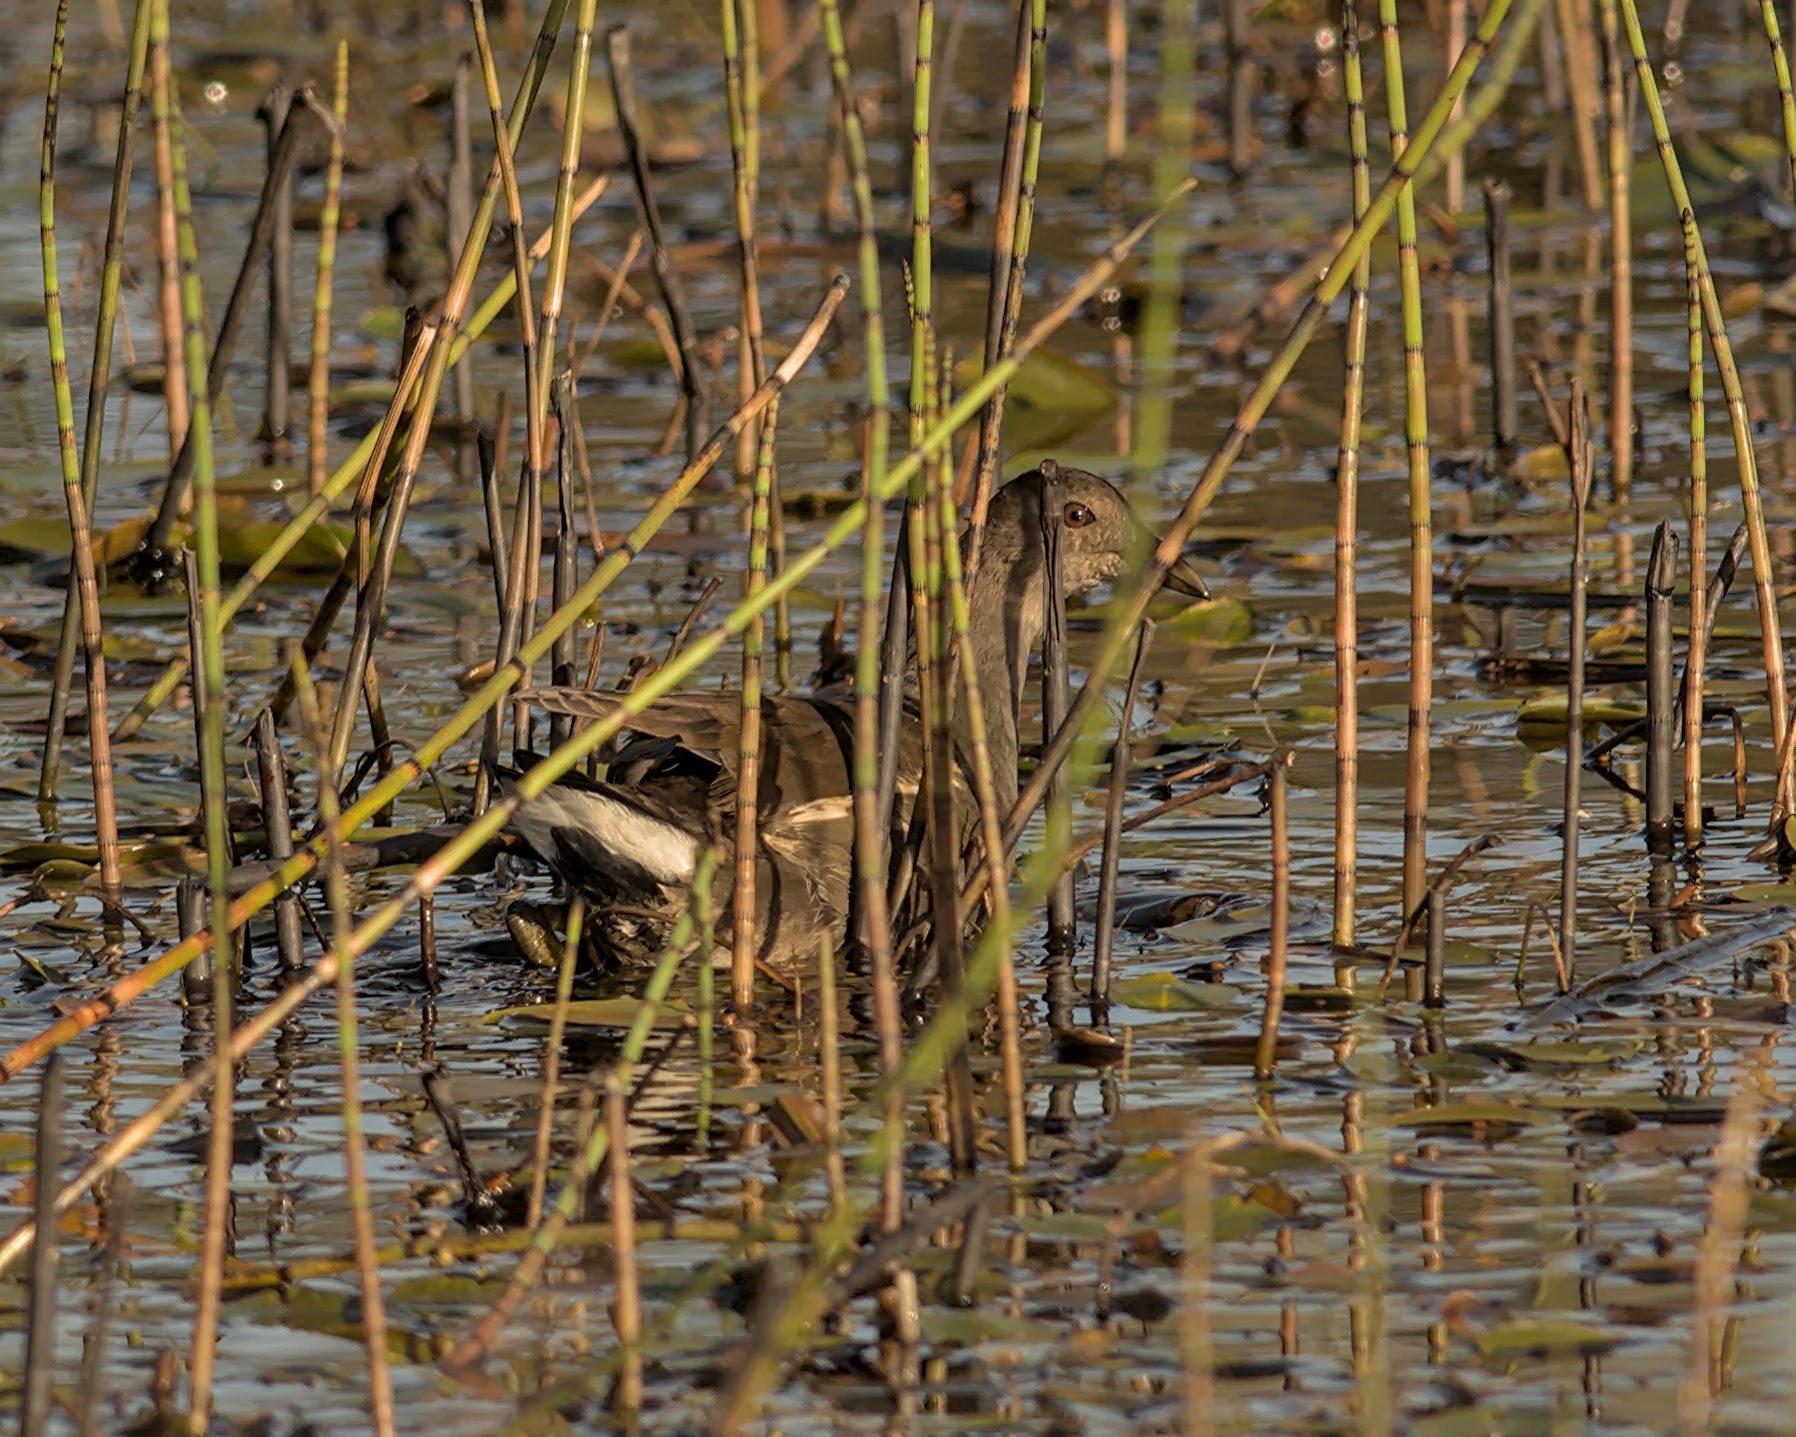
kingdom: Animalia
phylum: Chordata
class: Aves
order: Gruiformes
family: Rallidae
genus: Gallinula
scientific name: Gallinula chloropus
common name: Common moorhen
